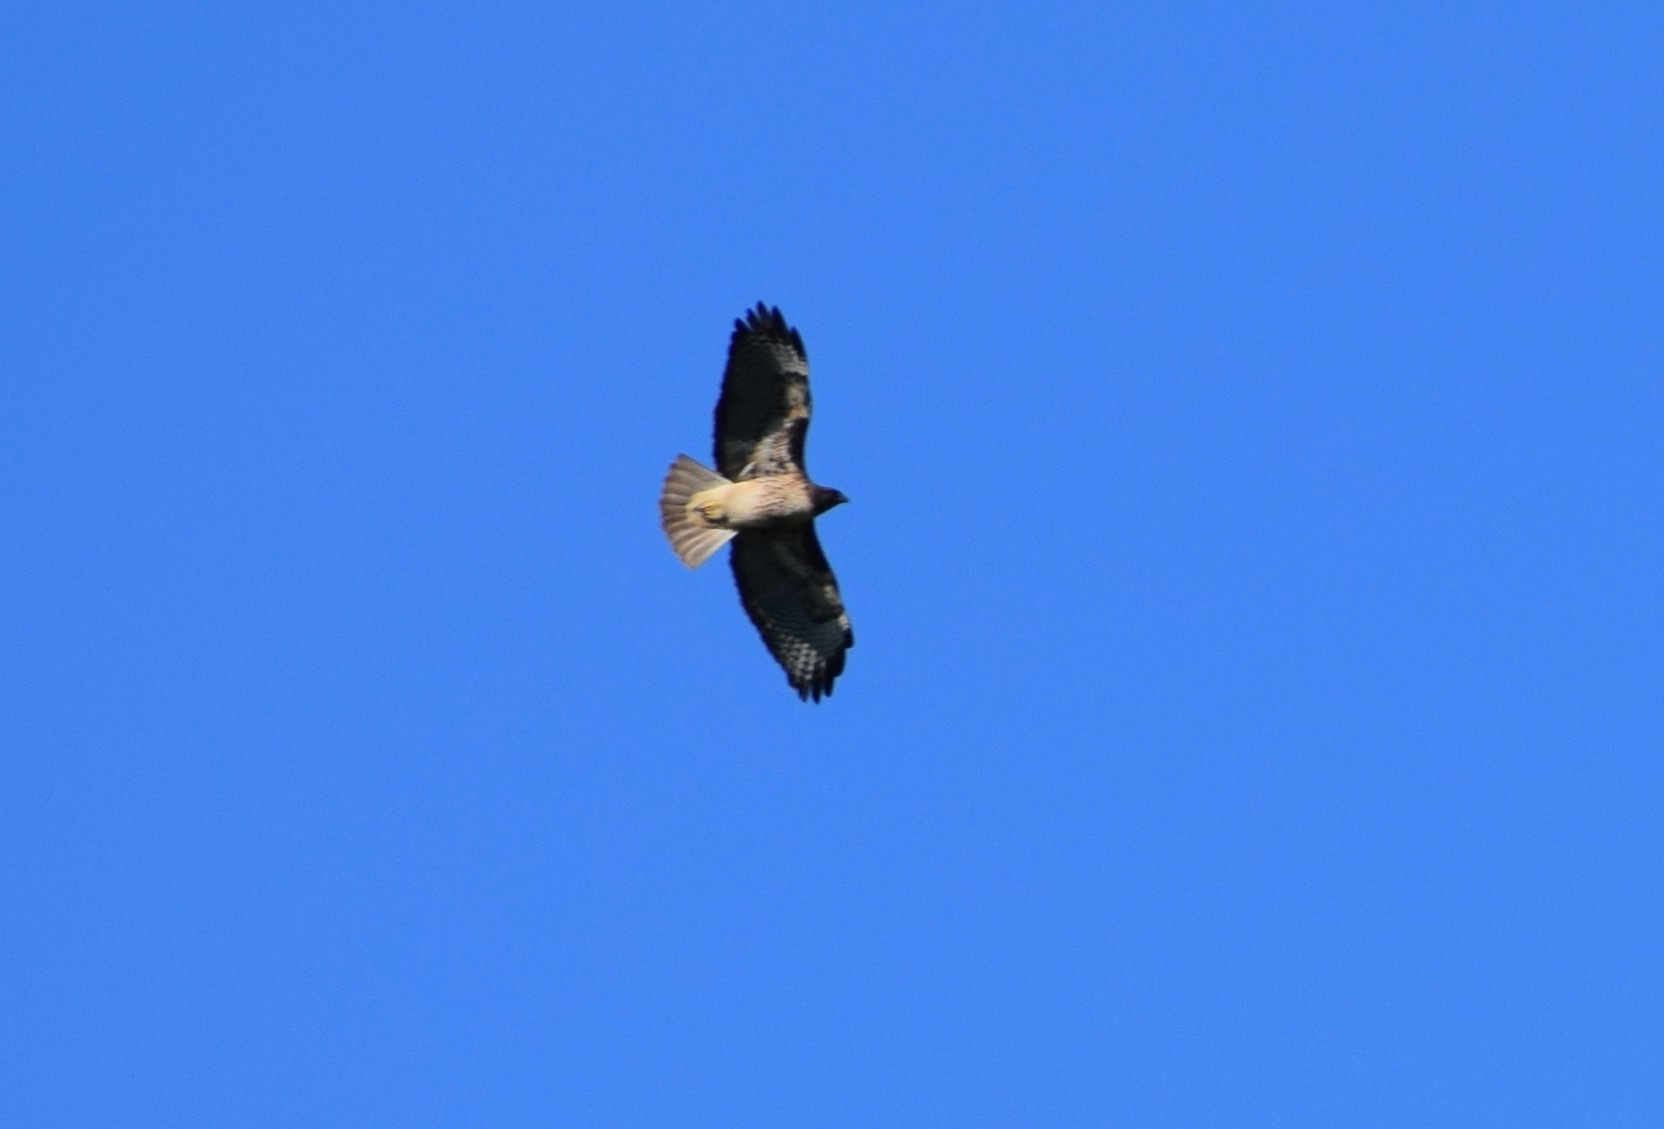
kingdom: Animalia
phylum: Chordata
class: Aves
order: Accipitriformes
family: Accipitridae
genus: Buteo
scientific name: Buteo jamaicensis
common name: Red-tailed hawk
